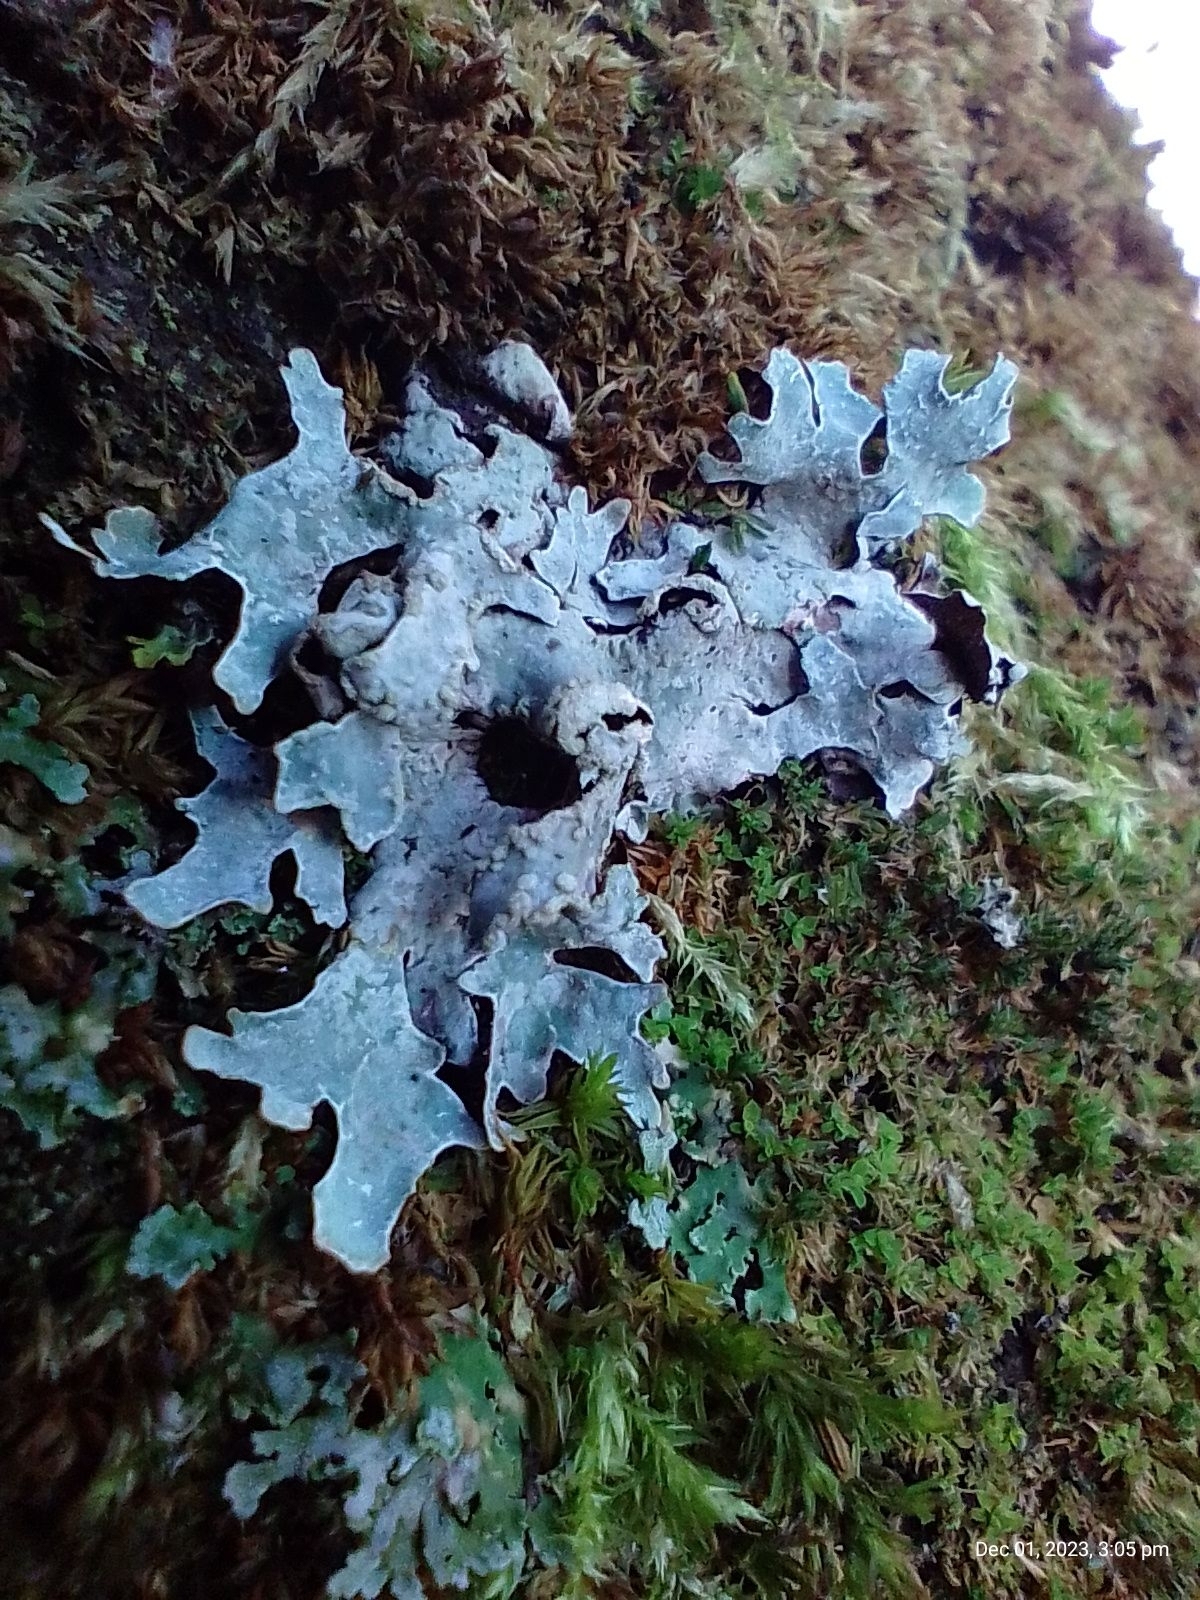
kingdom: Fungi
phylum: Ascomycota
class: Lecanoromycetes
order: Lecanorales
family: Parmeliaceae
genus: Parmelia
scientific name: Parmelia sulcata
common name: Netted shield lichen
